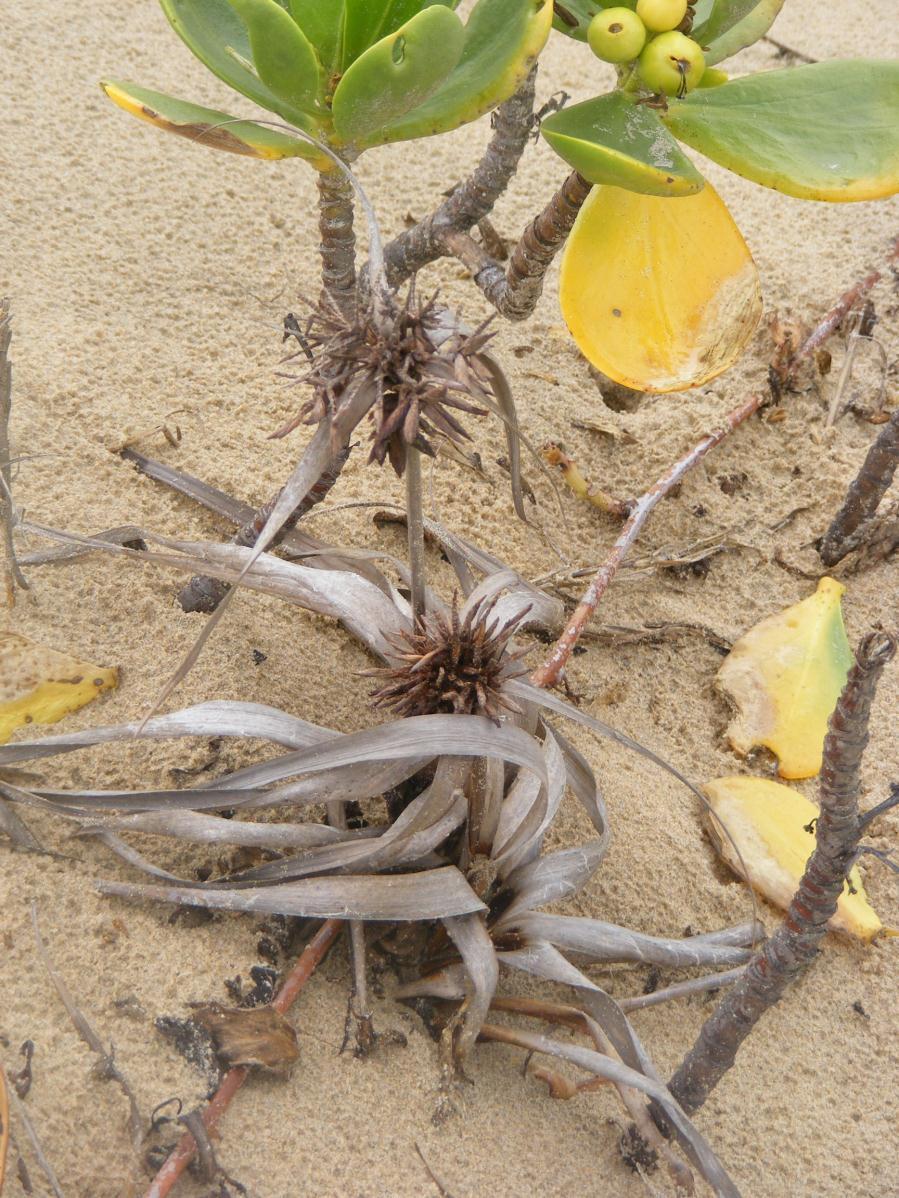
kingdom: Plantae
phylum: Tracheophyta
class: Liliopsida
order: Poales
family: Cyperaceae
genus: Cyperus
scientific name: Cyperus crassipes
